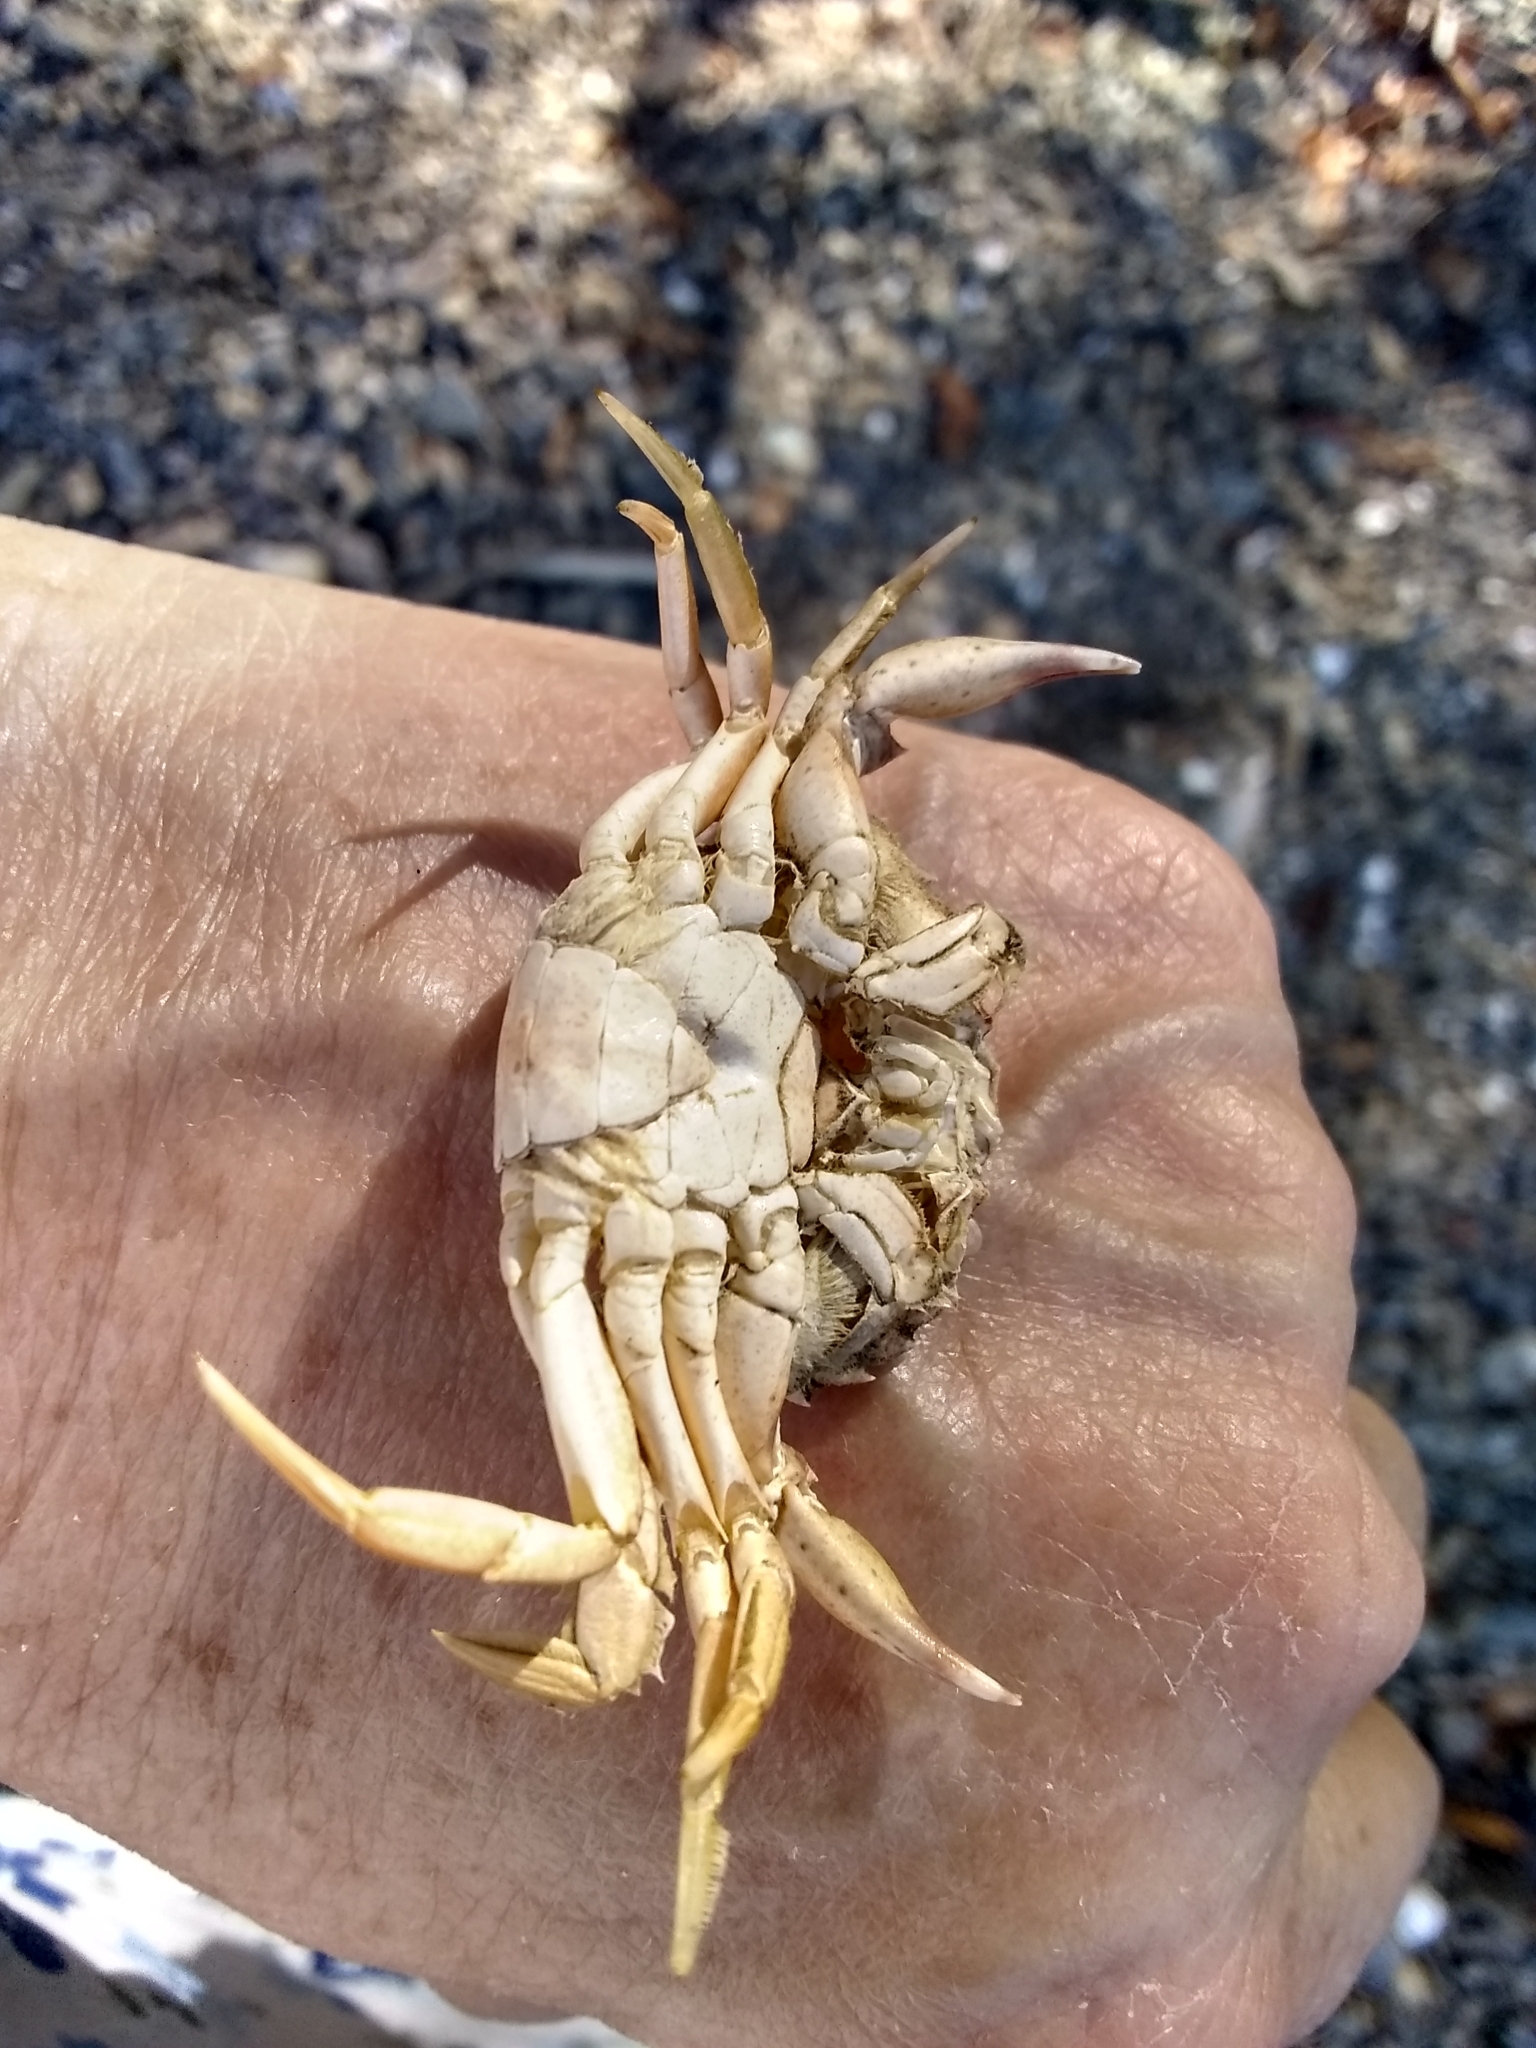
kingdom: Animalia
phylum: Arthropoda
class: Malacostraca
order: Decapoda
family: Carcinidae
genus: Carcinus
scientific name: Carcinus maenas
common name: European green crab
